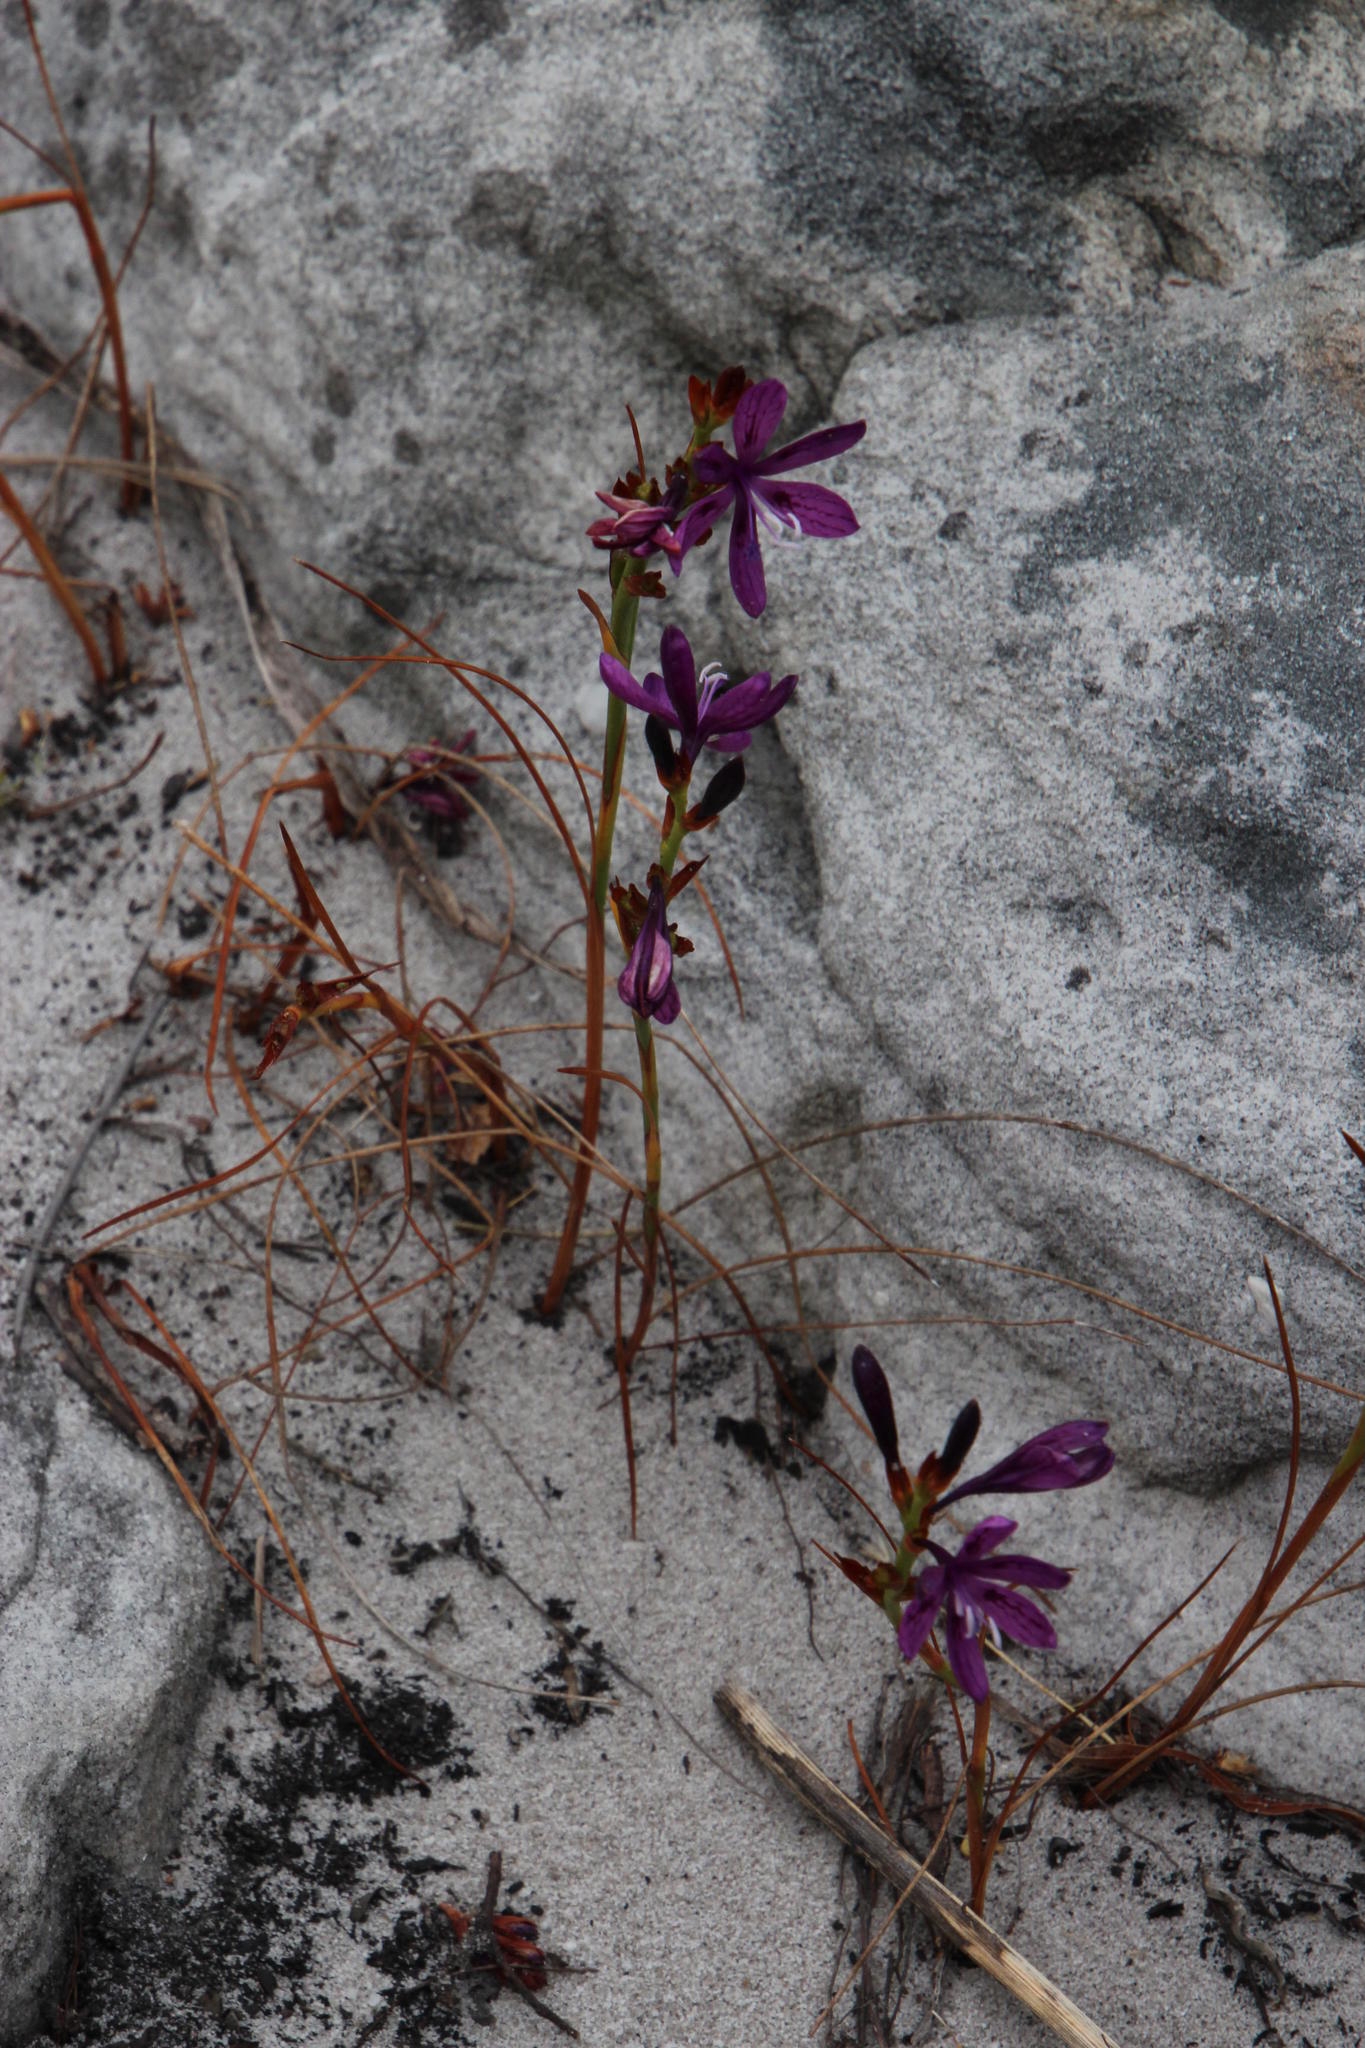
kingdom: Plantae
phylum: Tracheophyta
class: Liliopsida
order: Asparagales
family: Iridaceae
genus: Thereianthus
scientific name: Thereianthus bracteolatus
